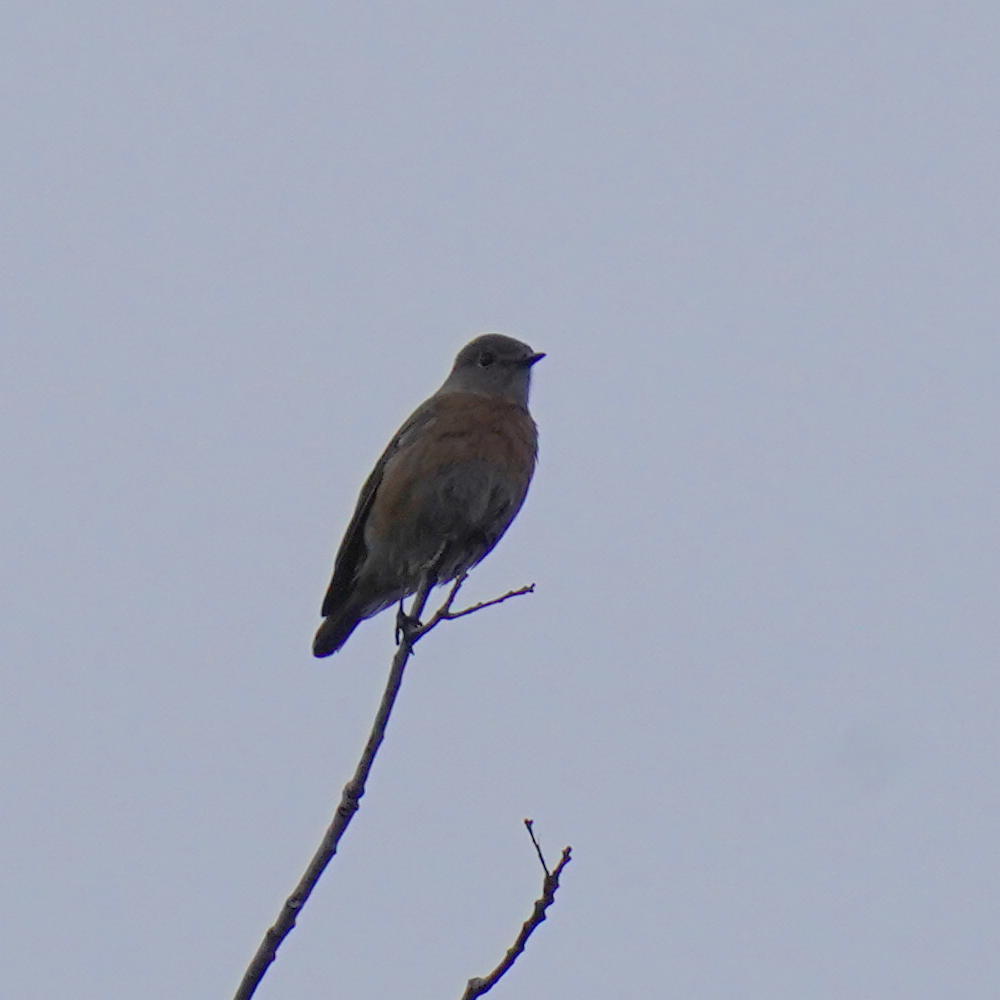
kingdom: Animalia
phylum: Chordata
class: Aves
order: Passeriformes
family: Turdidae
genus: Sialia
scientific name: Sialia mexicana
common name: Western bluebird
